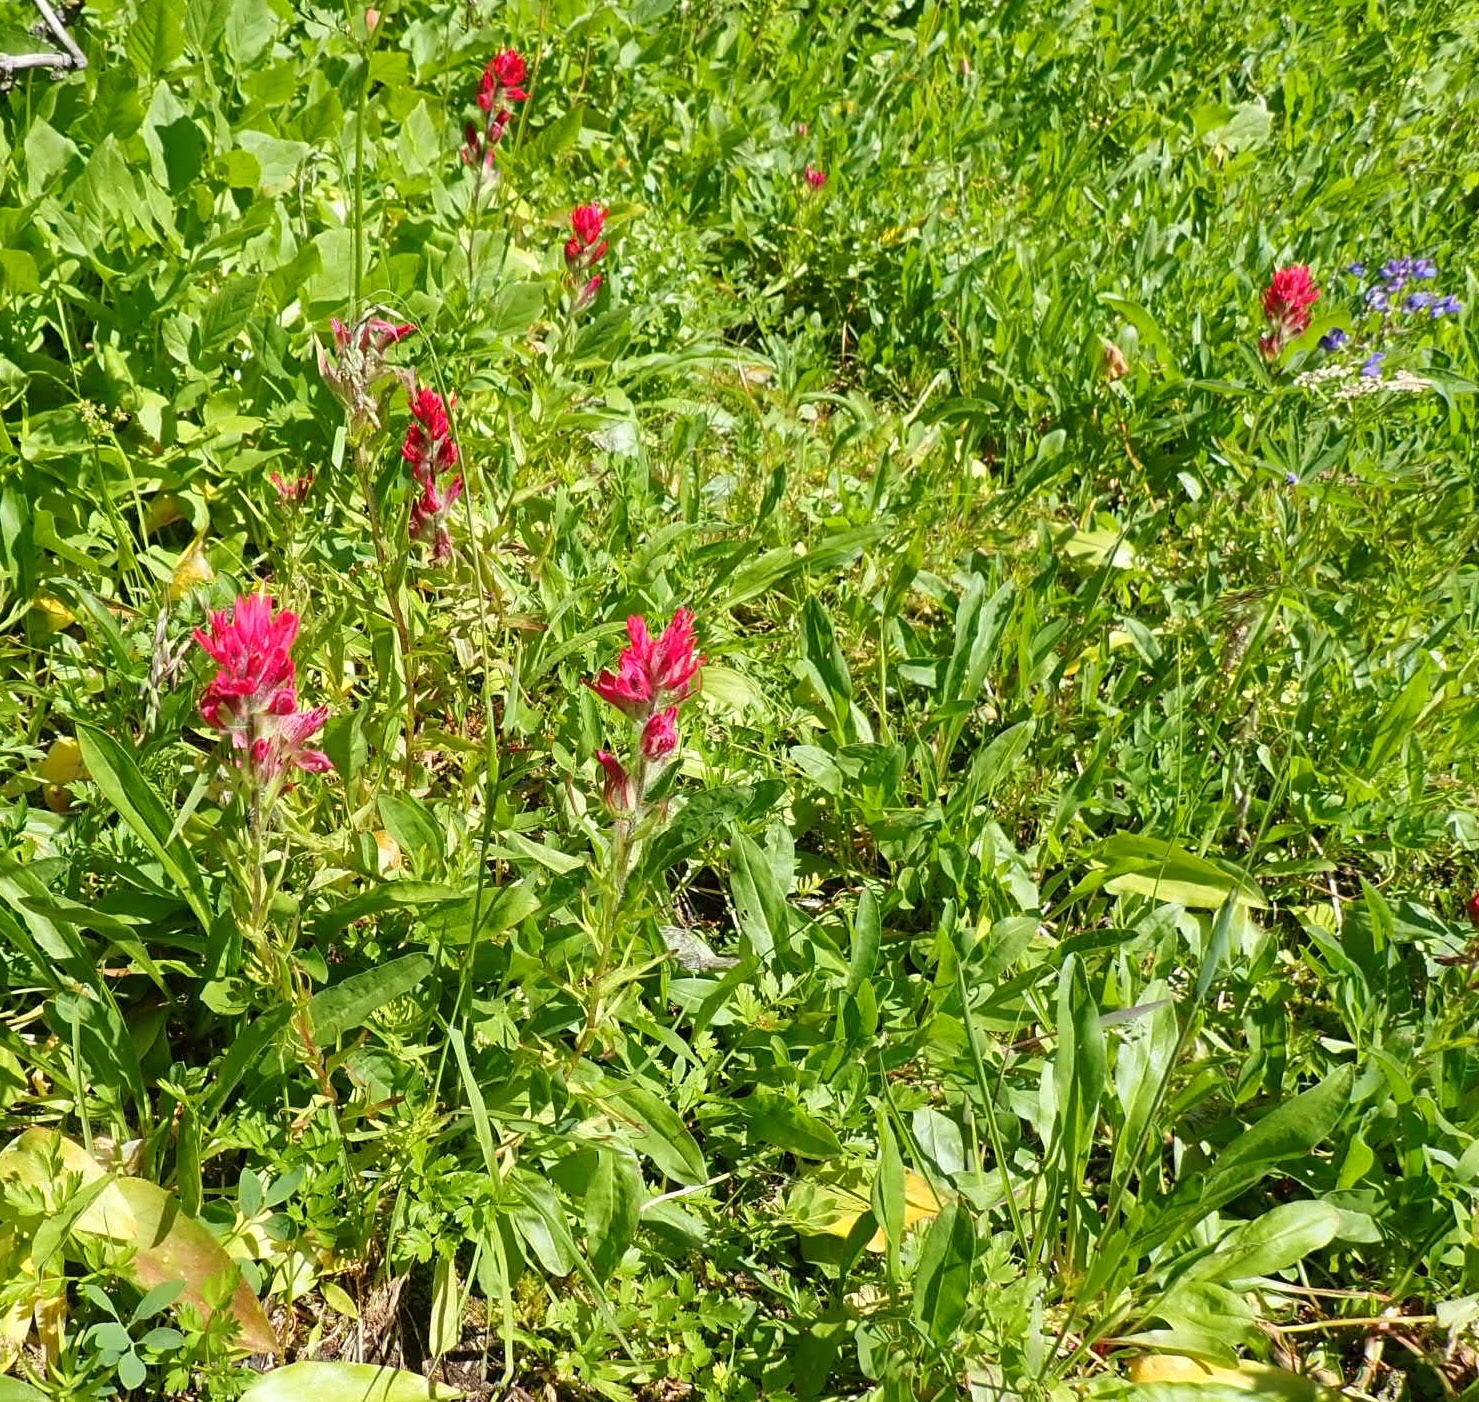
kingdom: Plantae
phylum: Tracheophyta
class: Magnoliopsida
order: Lamiales
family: Orobanchaceae
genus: Castilleja
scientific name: Castilleja parviflora
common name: Mountain paintbrush
